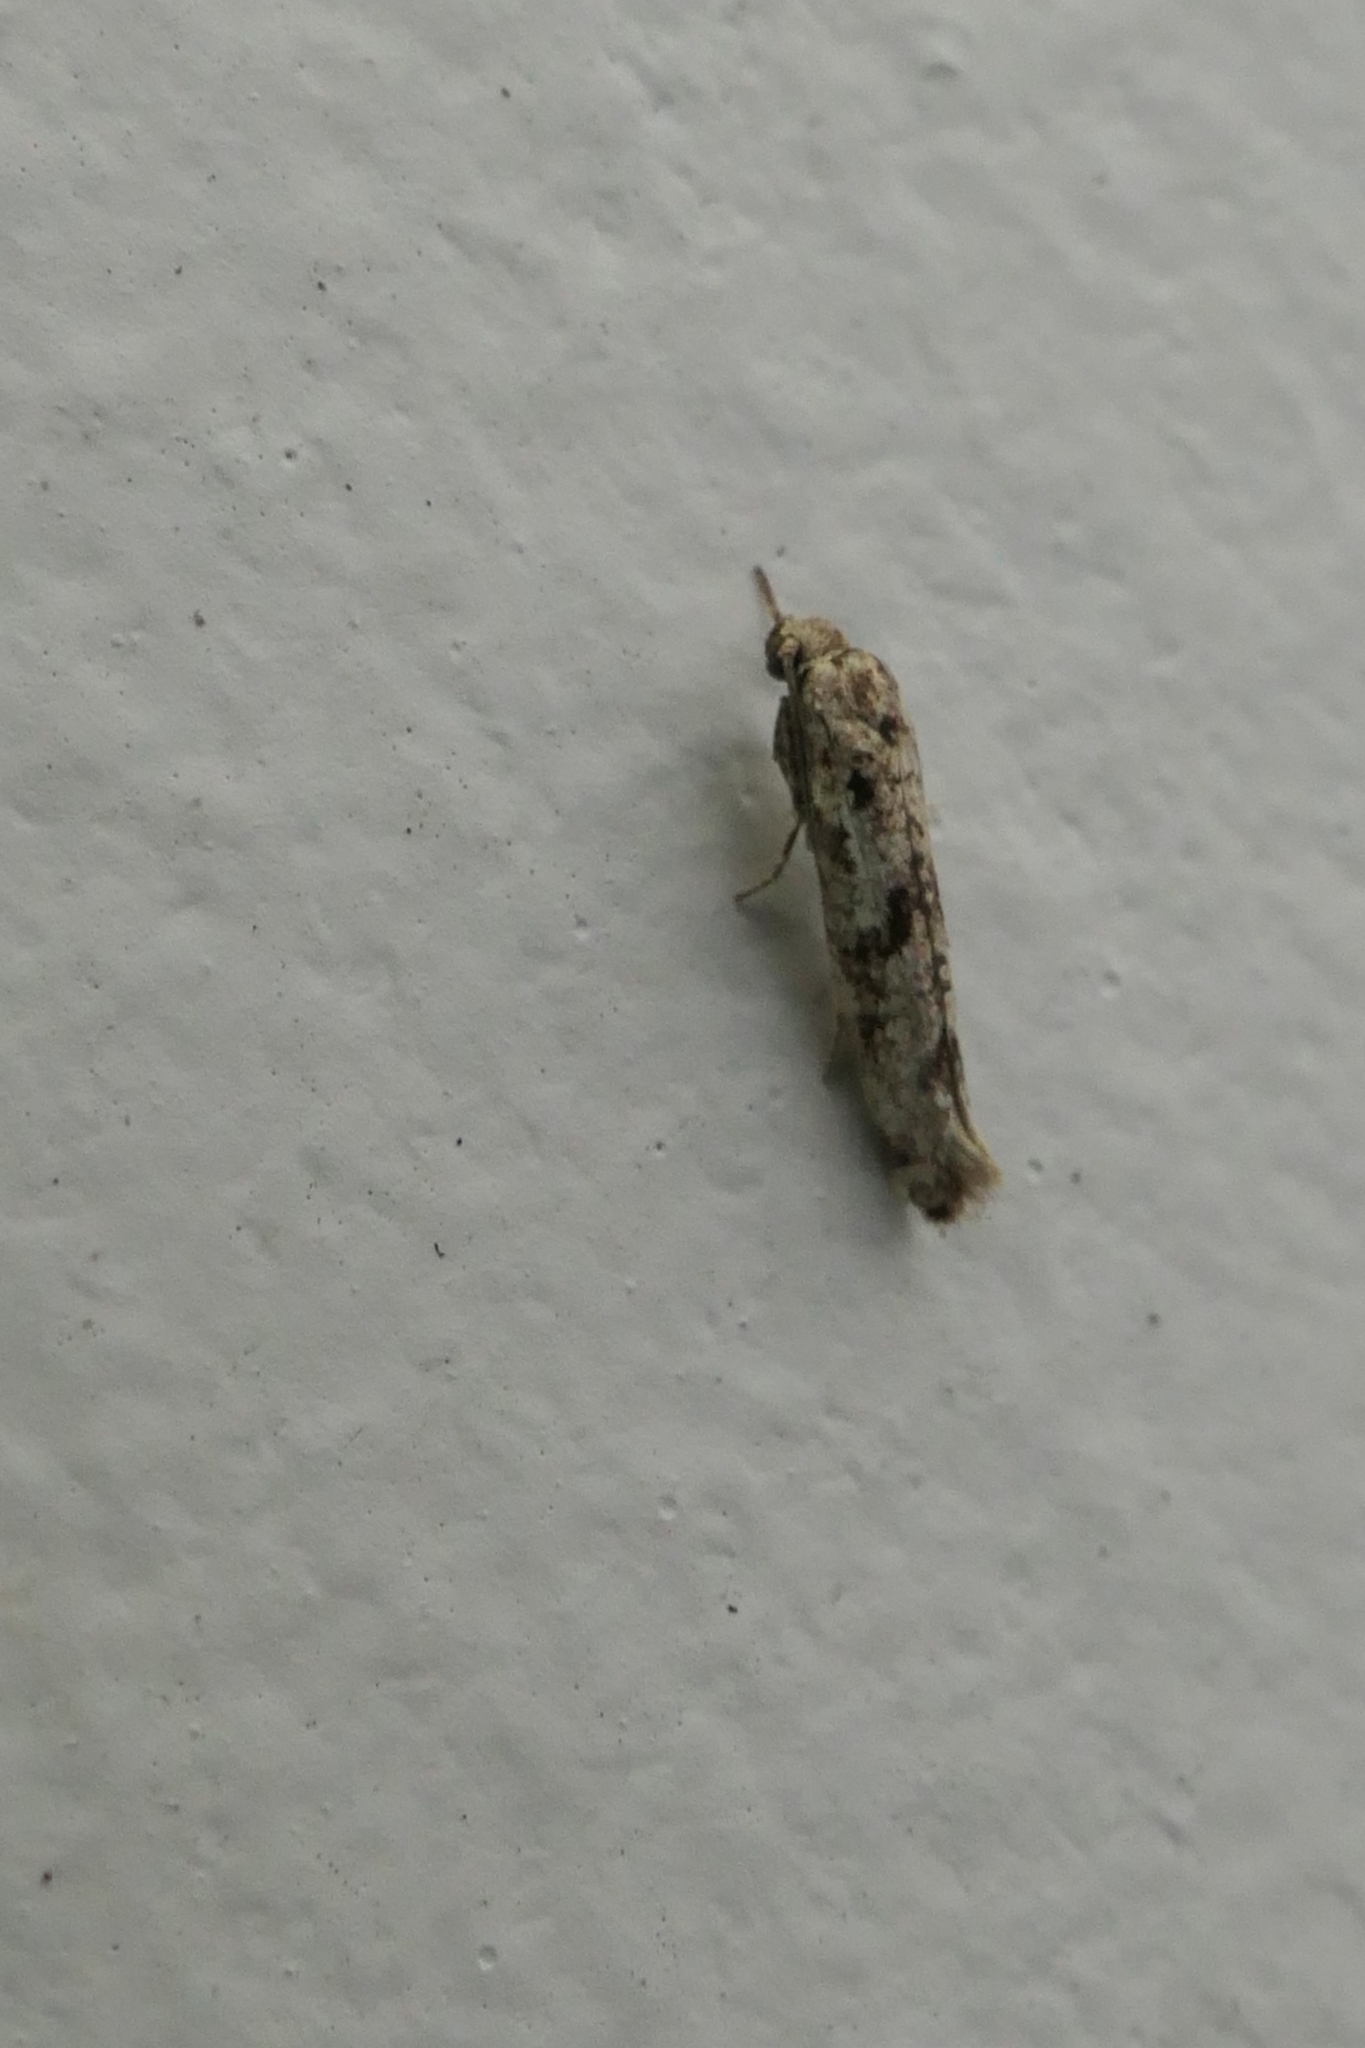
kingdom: Animalia
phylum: Arthropoda
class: Insecta
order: Lepidoptera
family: Praydidae
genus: Prays
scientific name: Prays nephelomima
